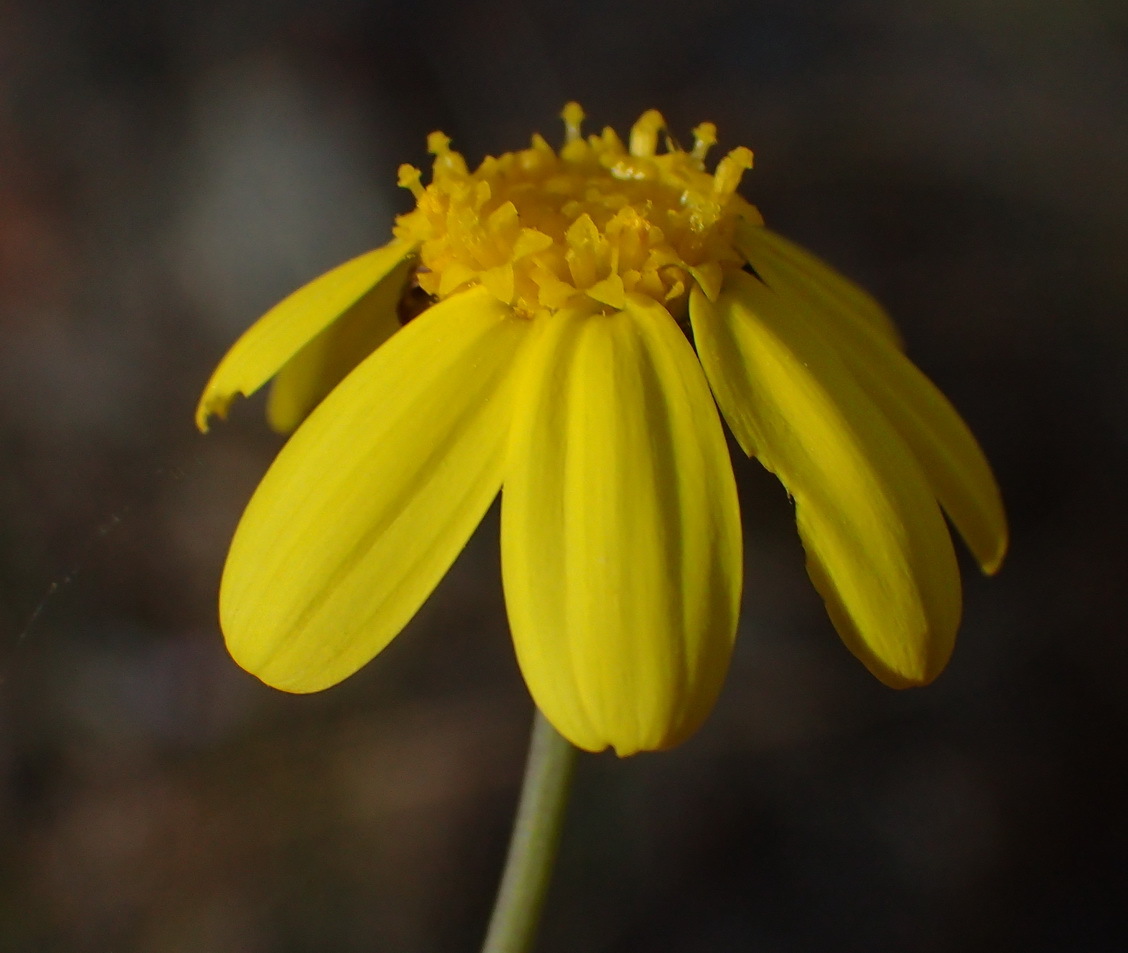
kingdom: Plantae
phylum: Tracheophyta
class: Magnoliopsida
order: Asterales
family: Asteraceae
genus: Othonna
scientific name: Othonna quinquedentata
